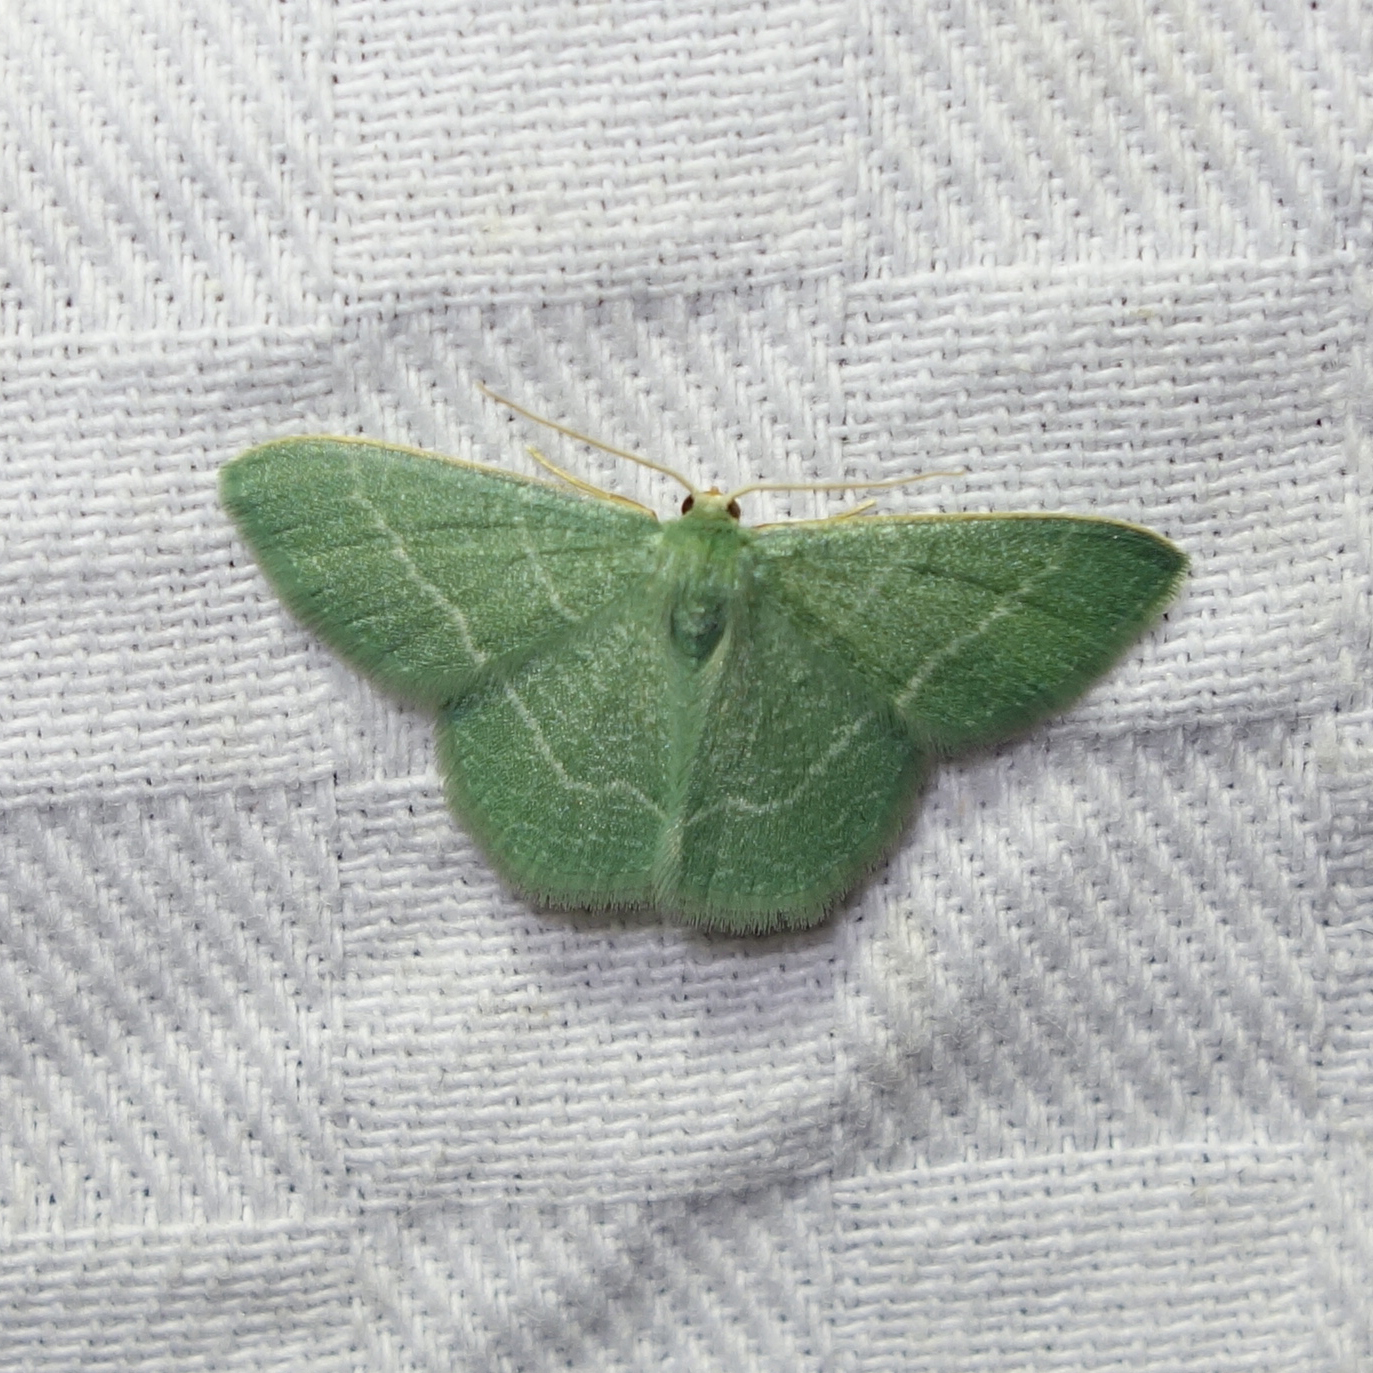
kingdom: Animalia
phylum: Arthropoda
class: Insecta
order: Lepidoptera
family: Geometridae
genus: Chlorissa
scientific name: Chlorissa etruscaria
